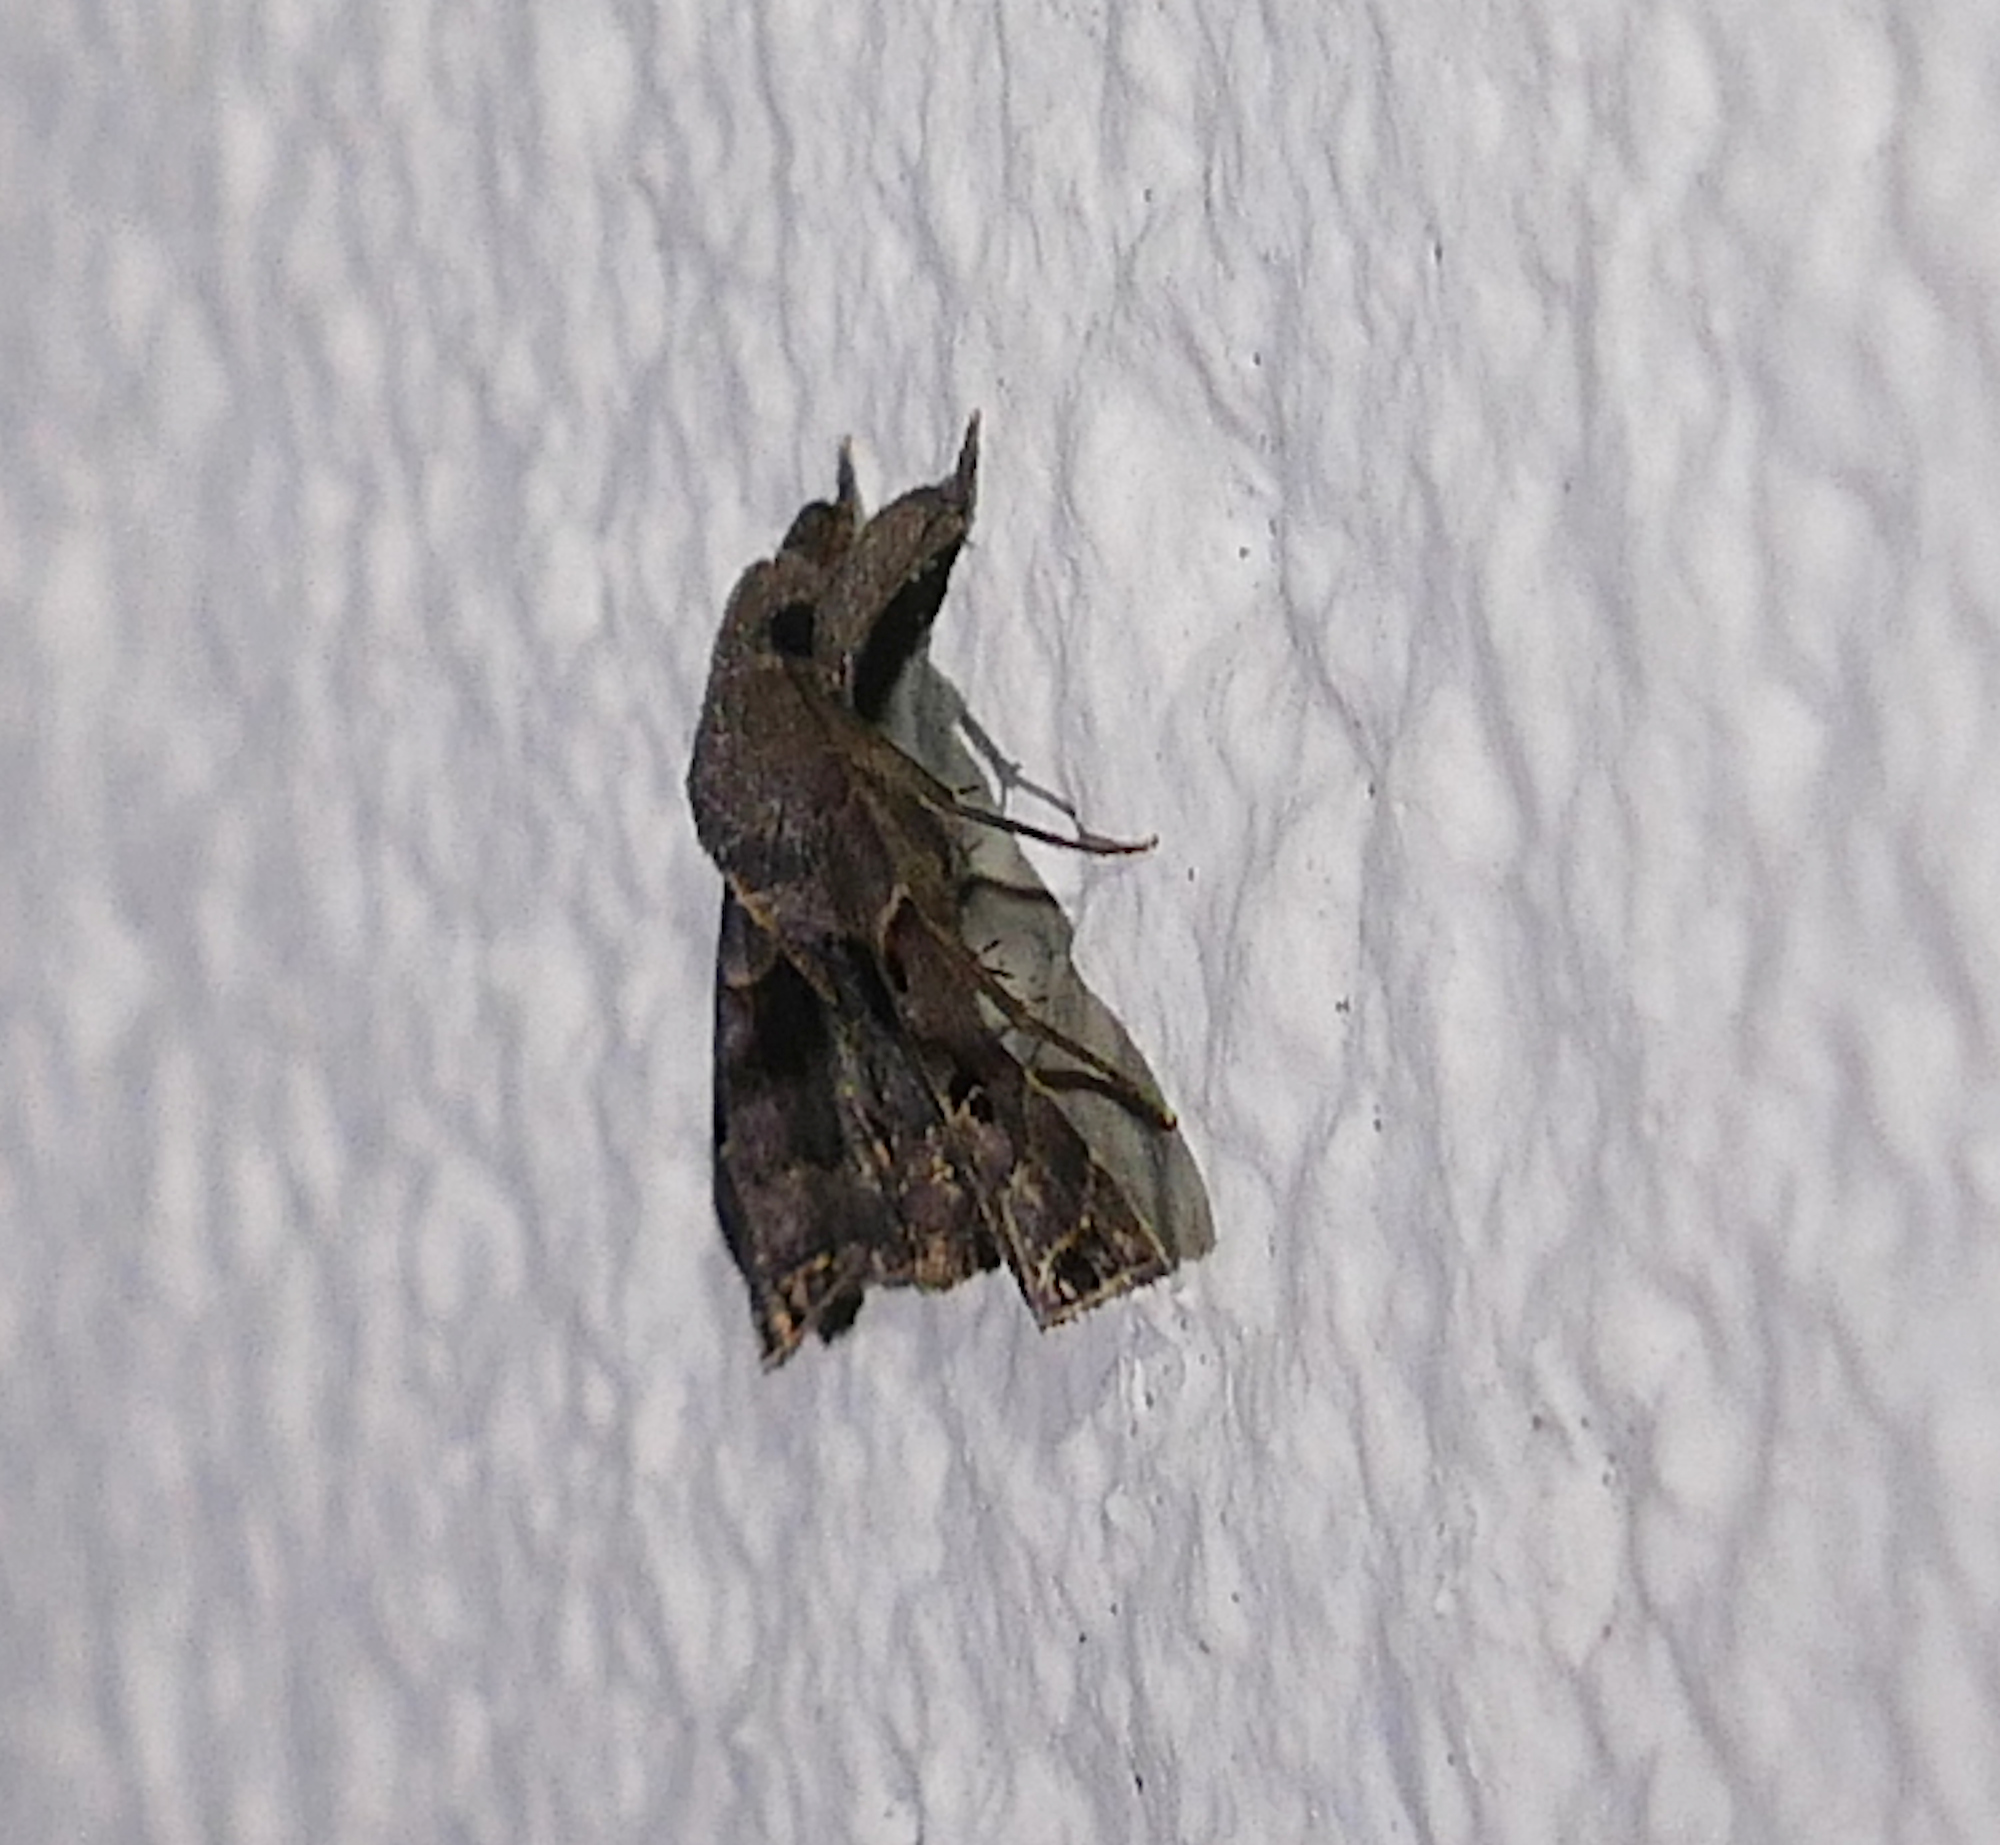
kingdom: Animalia
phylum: Arthropoda
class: Insecta
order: Lepidoptera
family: Erebidae
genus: Palthis
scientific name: Palthis asopialis
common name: Faint-spotted palthis moth
